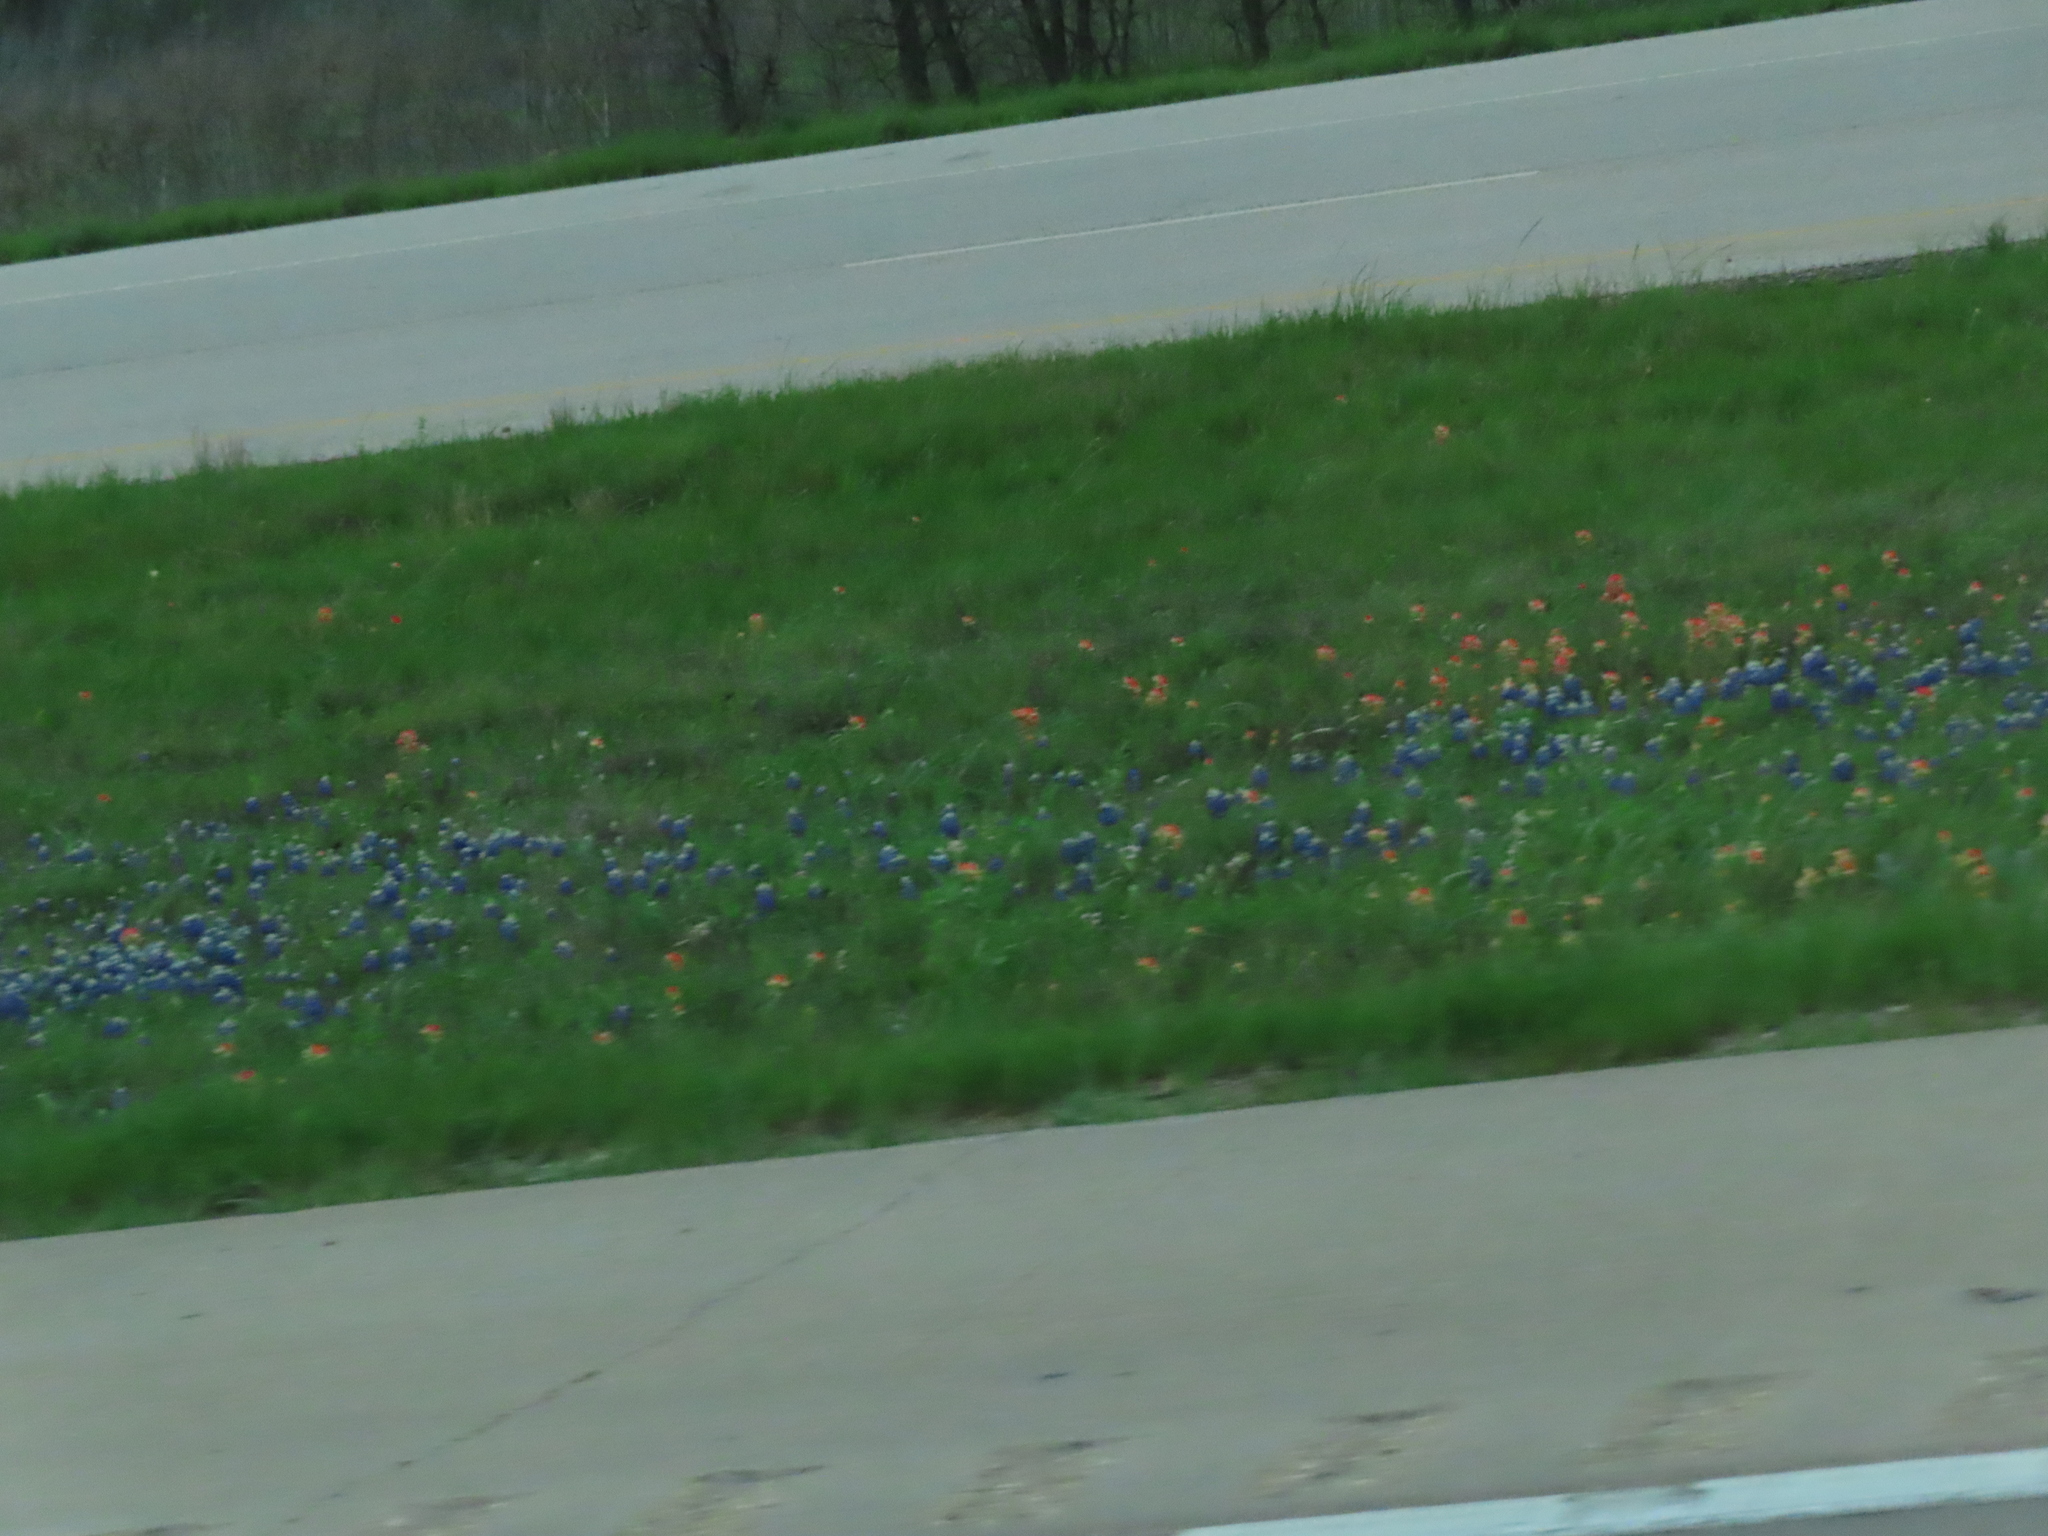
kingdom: Plantae
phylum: Tracheophyta
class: Magnoliopsida
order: Lamiales
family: Orobanchaceae
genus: Castilleja
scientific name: Castilleja indivisa
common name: Texas paintbrush
